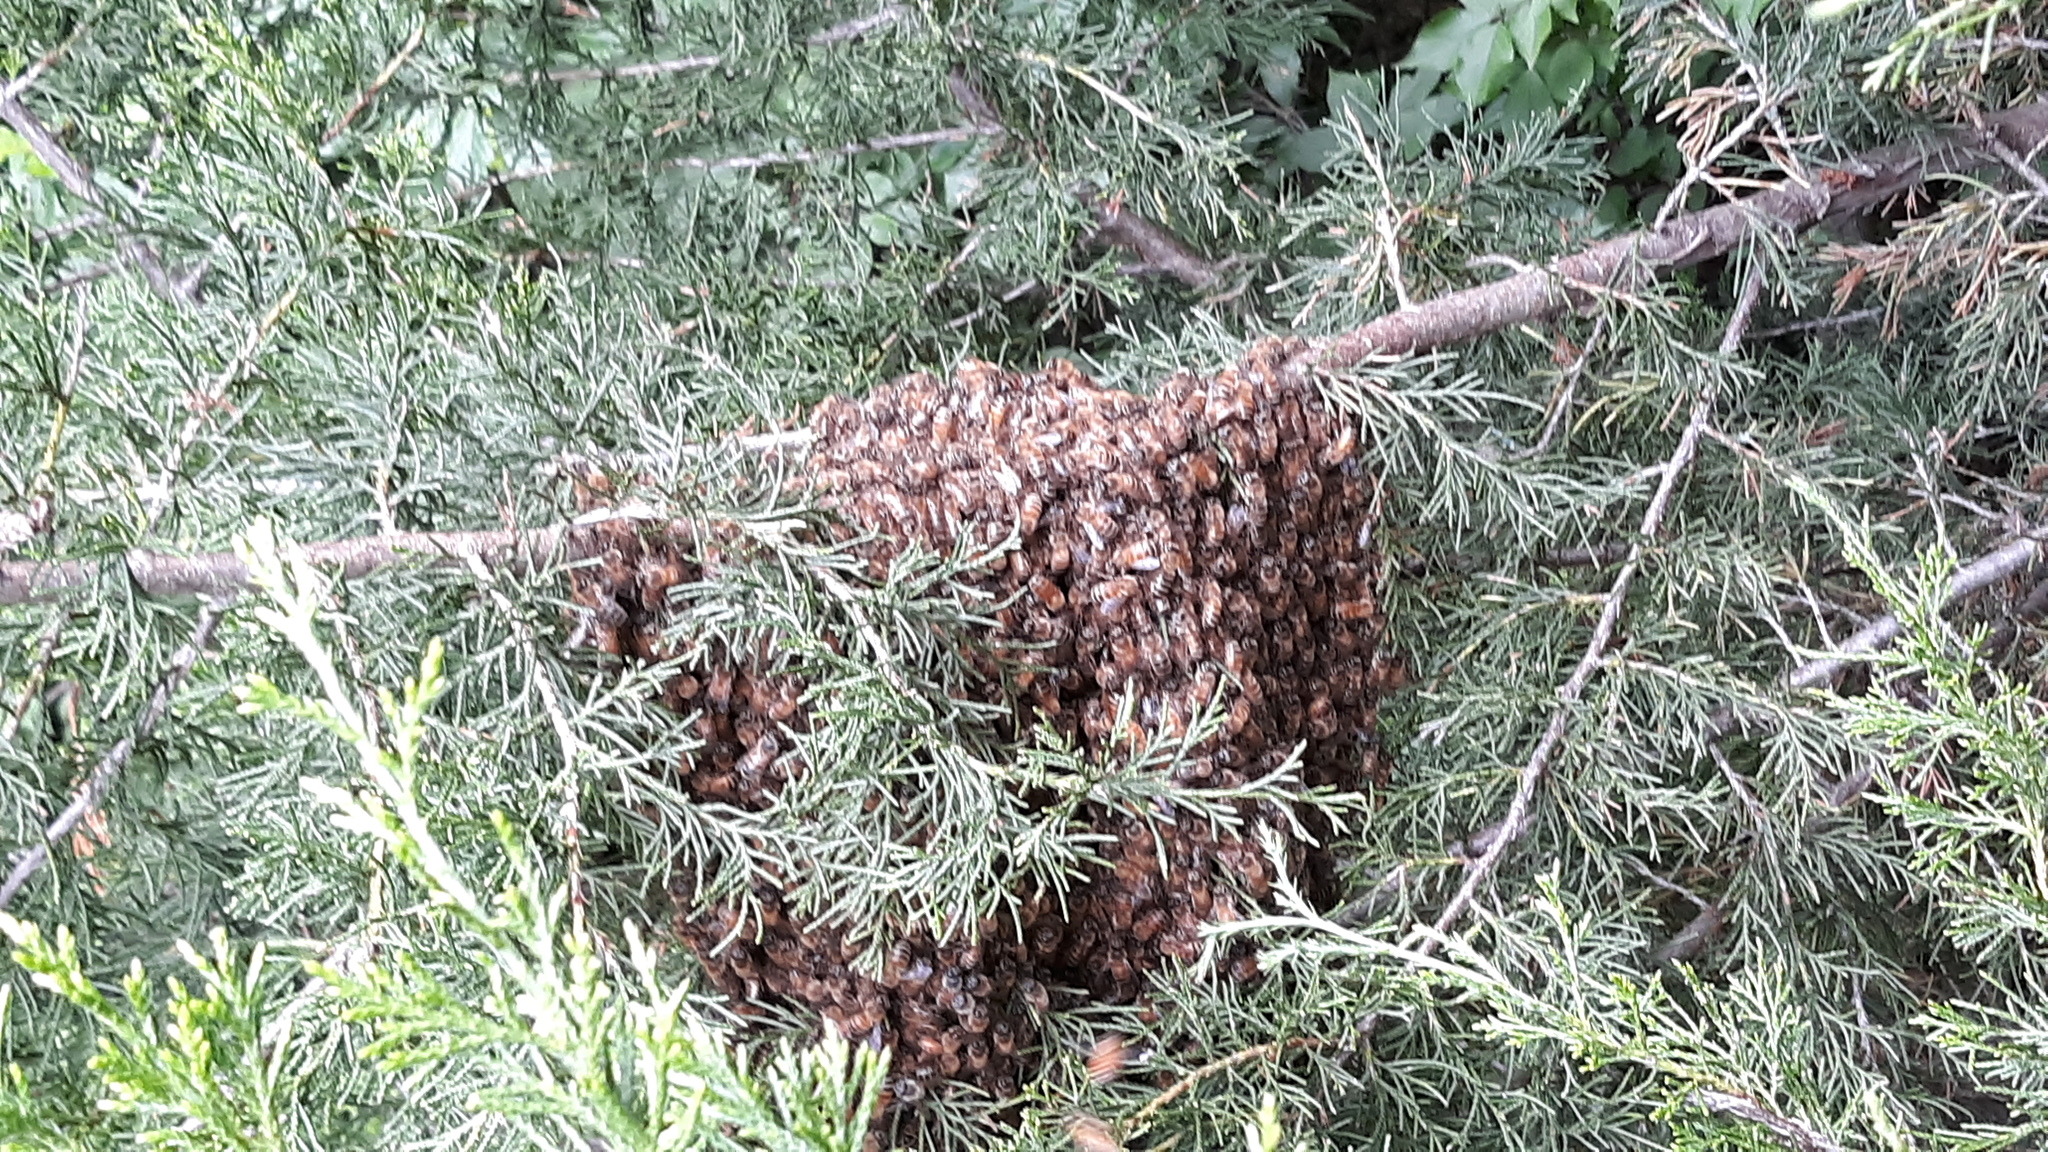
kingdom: Animalia
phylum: Arthropoda
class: Insecta
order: Hymenoptera
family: Apidae
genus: Apis
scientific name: Apis mellifera
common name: Honey bee
